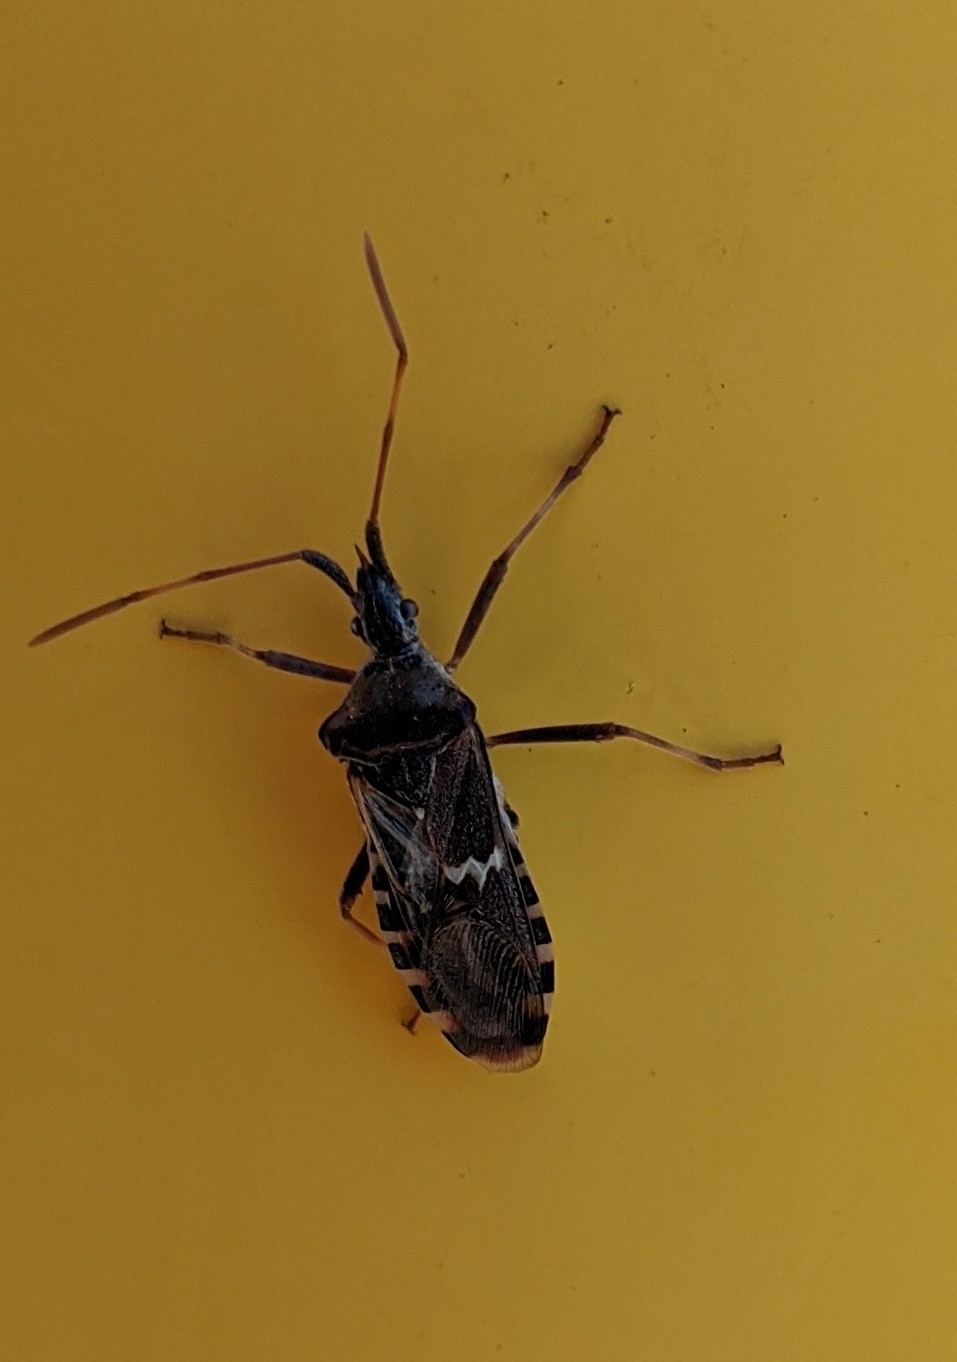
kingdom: Animalia
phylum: Arthropoda
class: Insecta
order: Hemiptera
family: Coreidae
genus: Leptoglossus
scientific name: Leptoglossus clypealis
